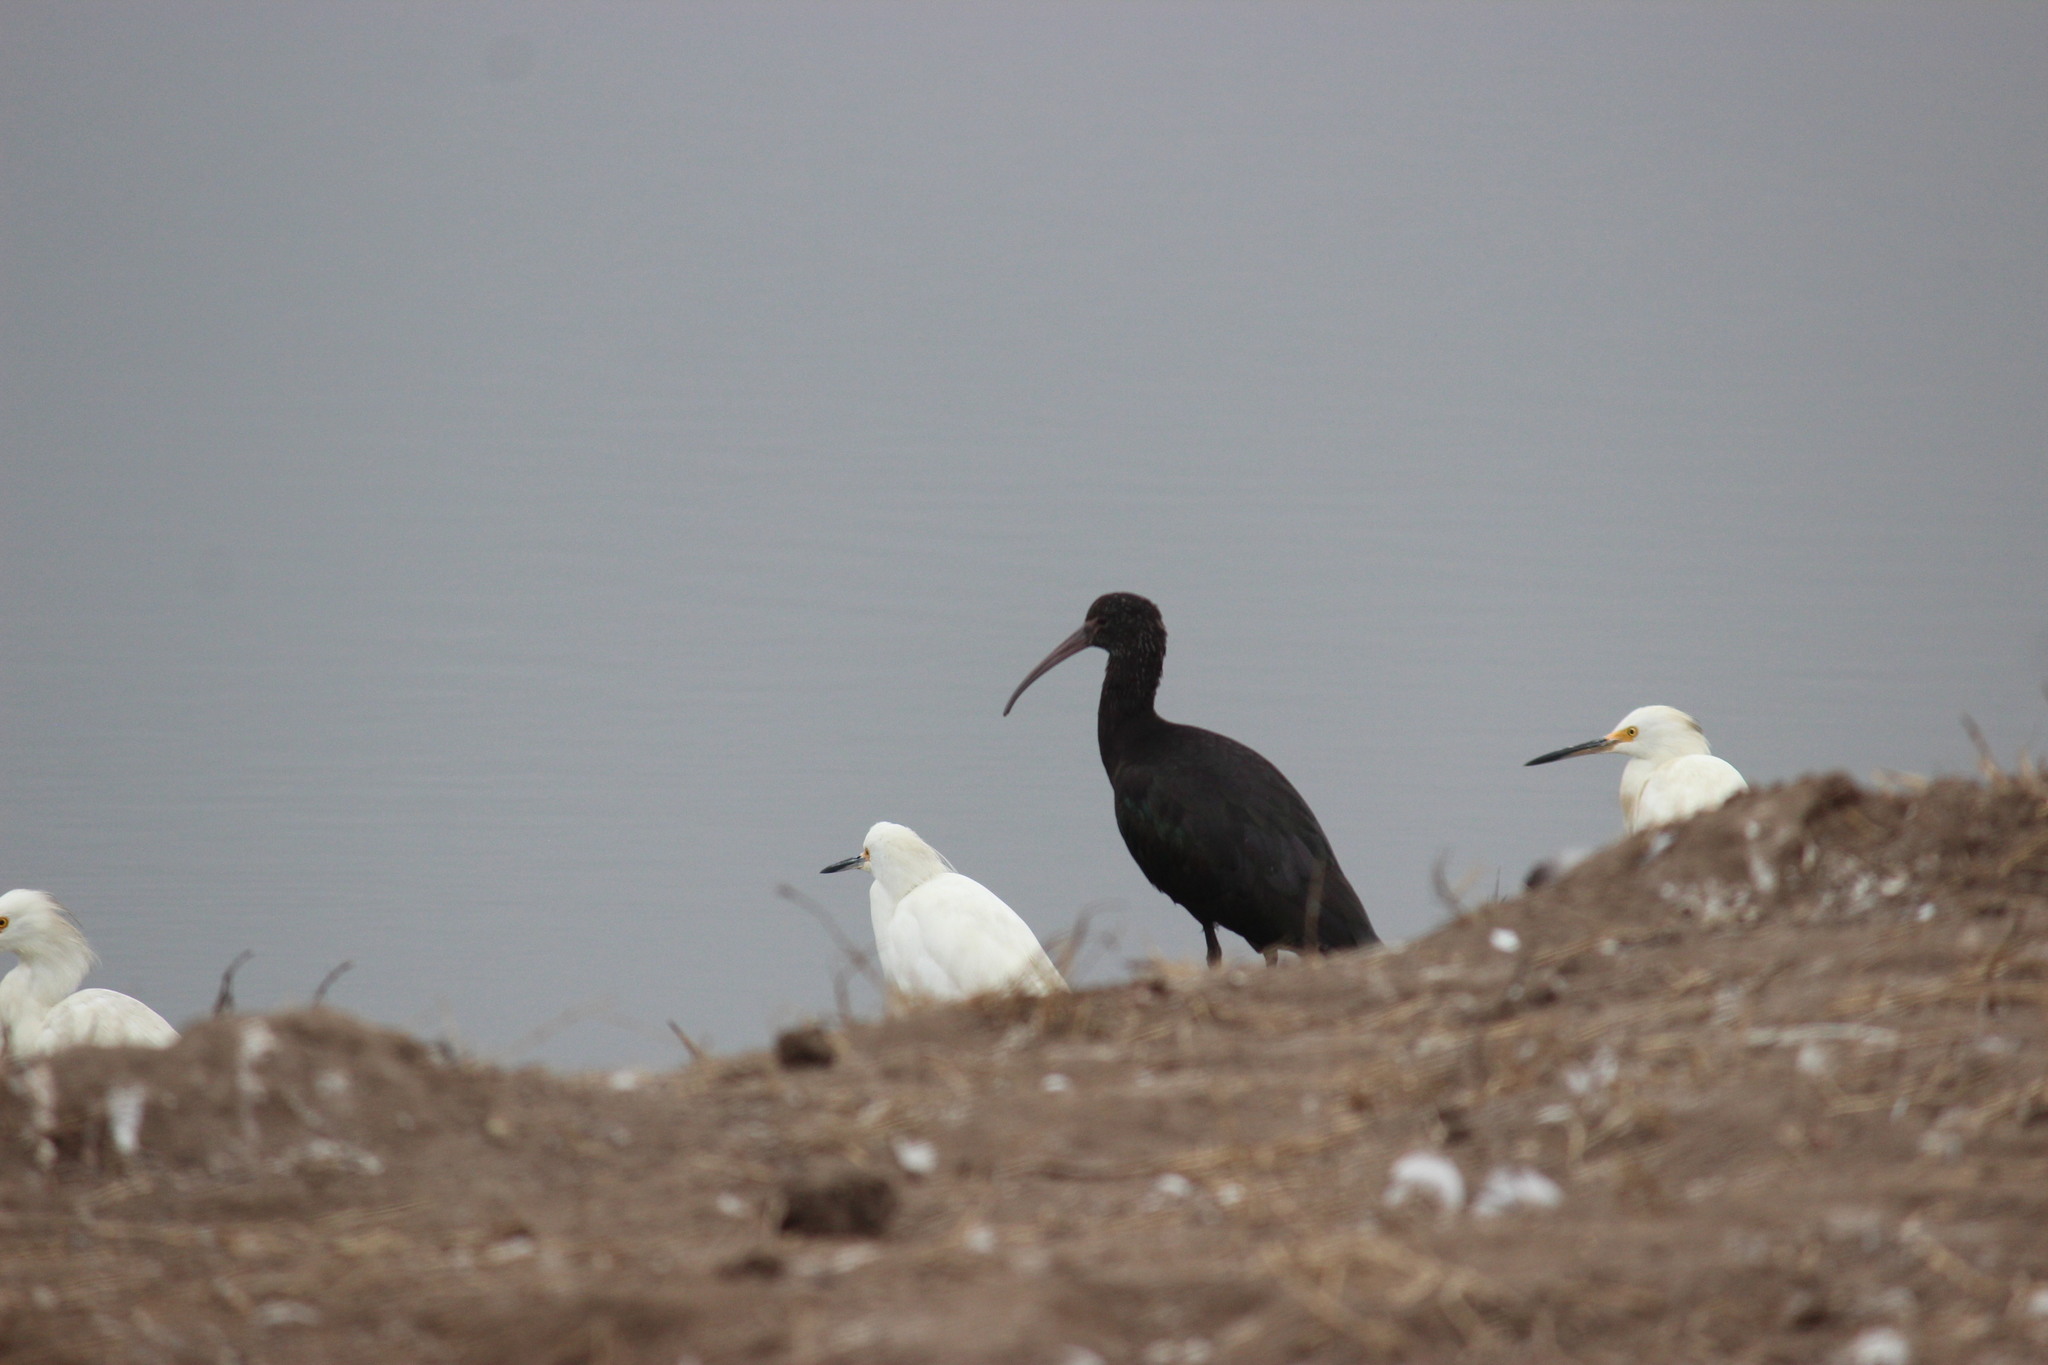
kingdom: Animalia
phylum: Chordata
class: Aves
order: Pelecaniformes
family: Threskiornithidae
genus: Plegadis
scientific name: Plegadis ridgwayi
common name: Puna ibis
